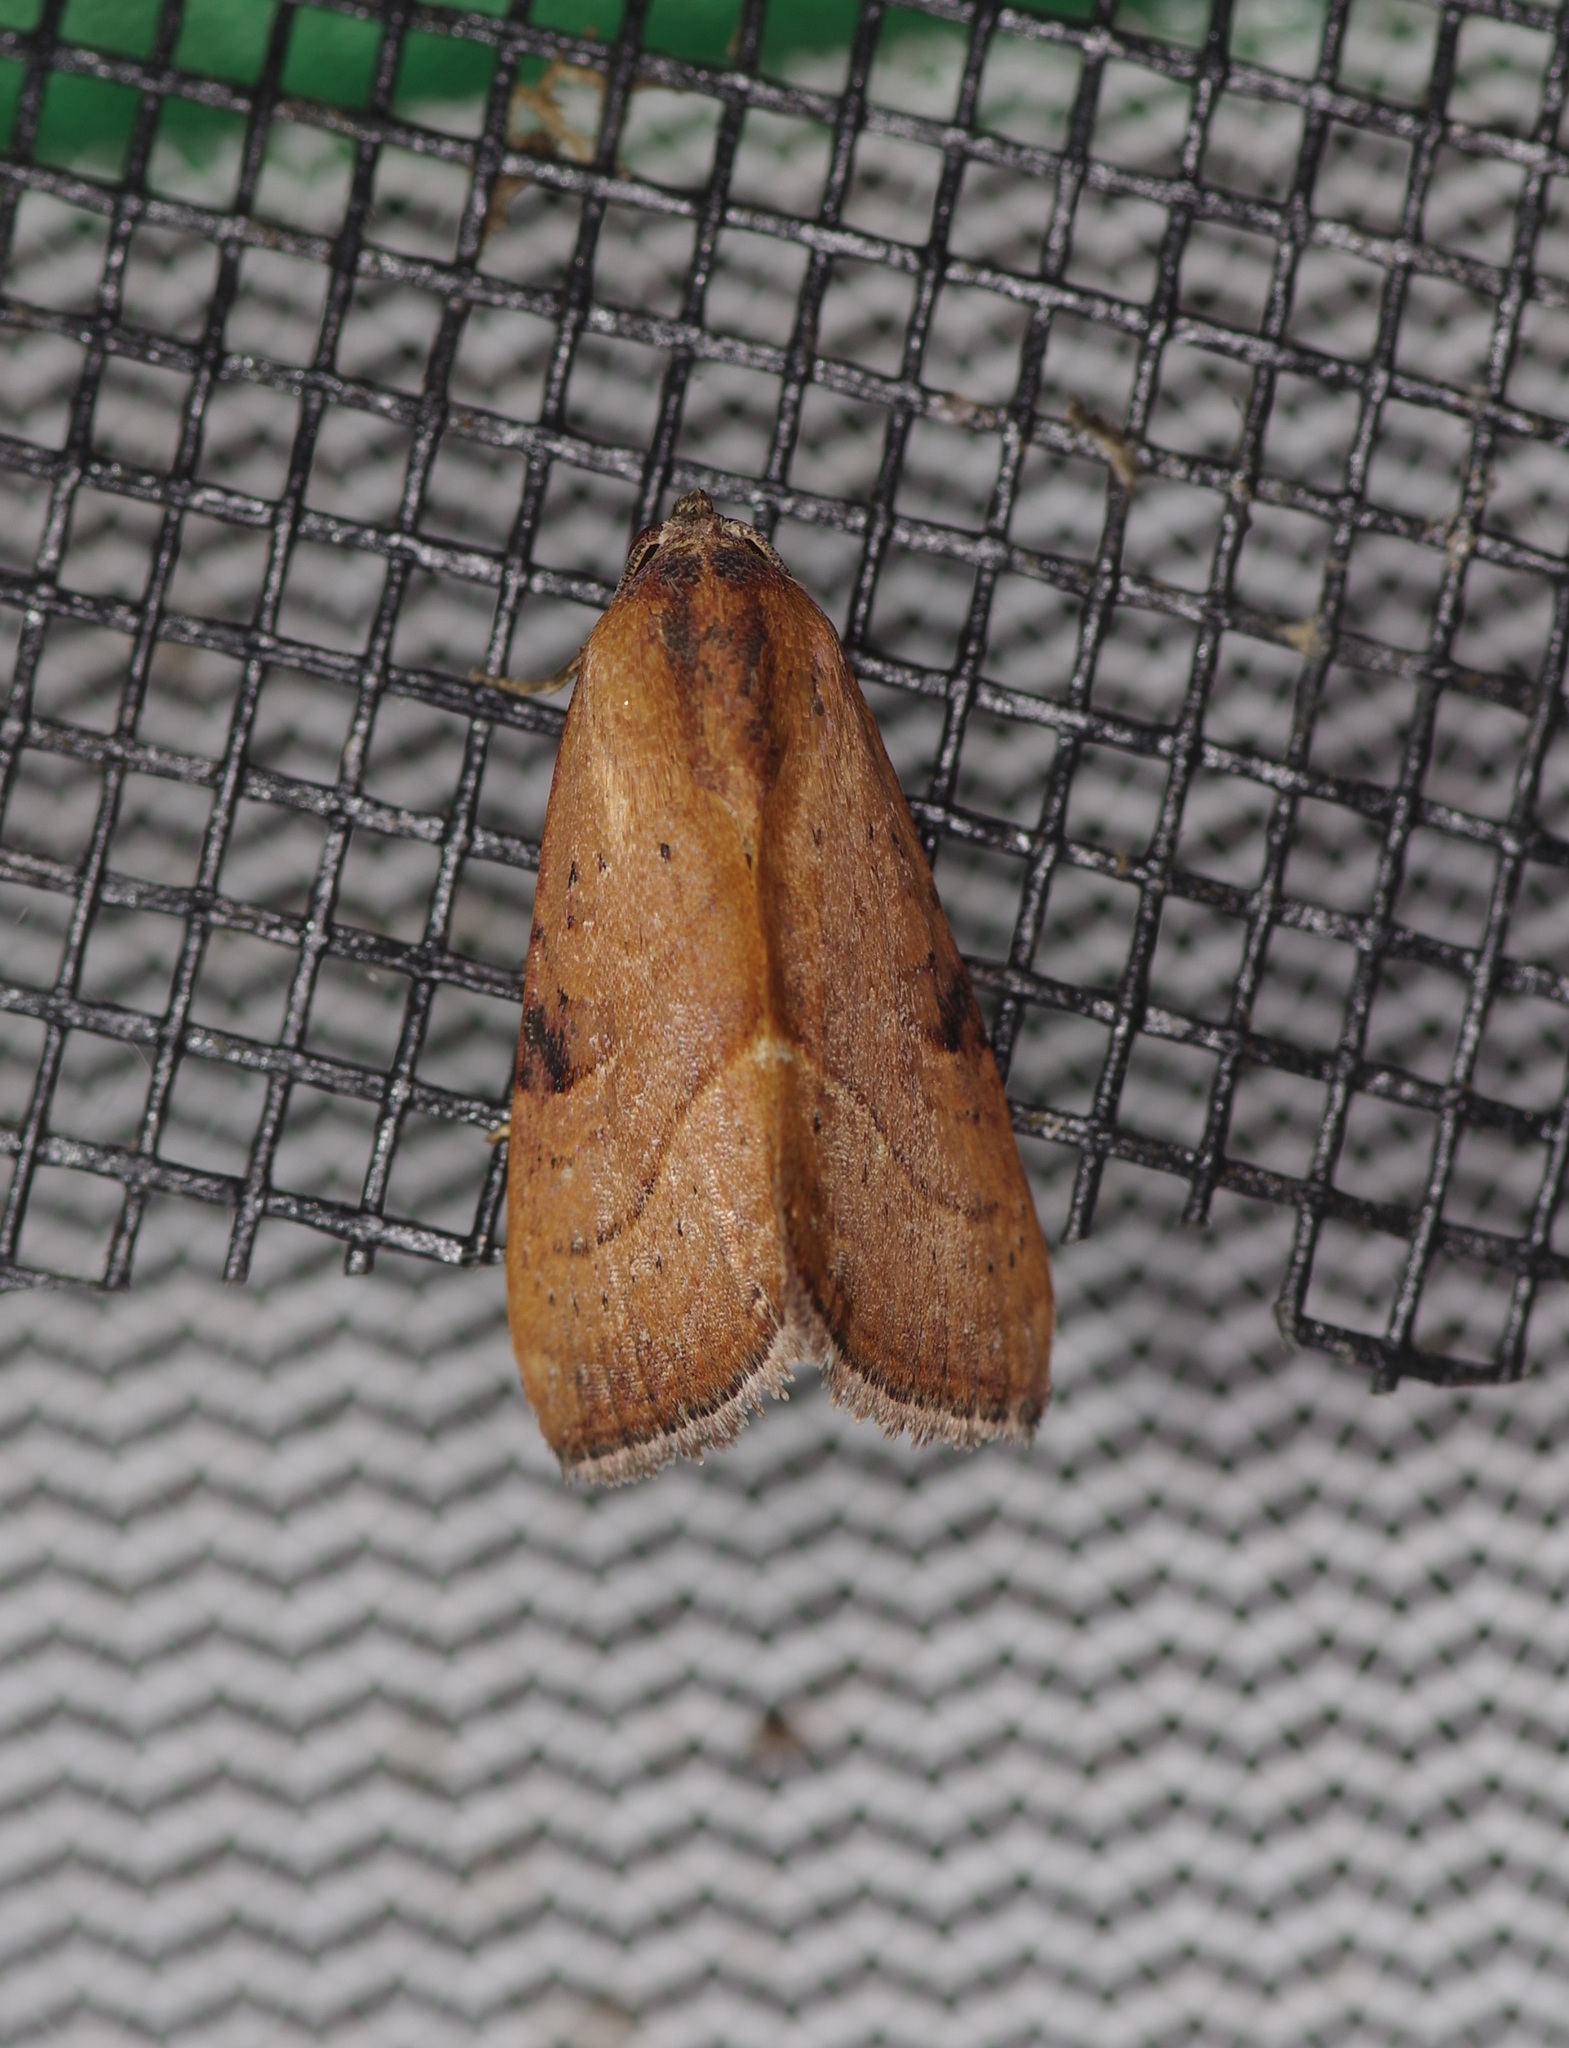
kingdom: Animalia
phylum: Arthropoda
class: Insecta
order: Lepidoptera
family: Noctuidae
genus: Galgula
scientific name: Galgula partita
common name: Wedgeling
